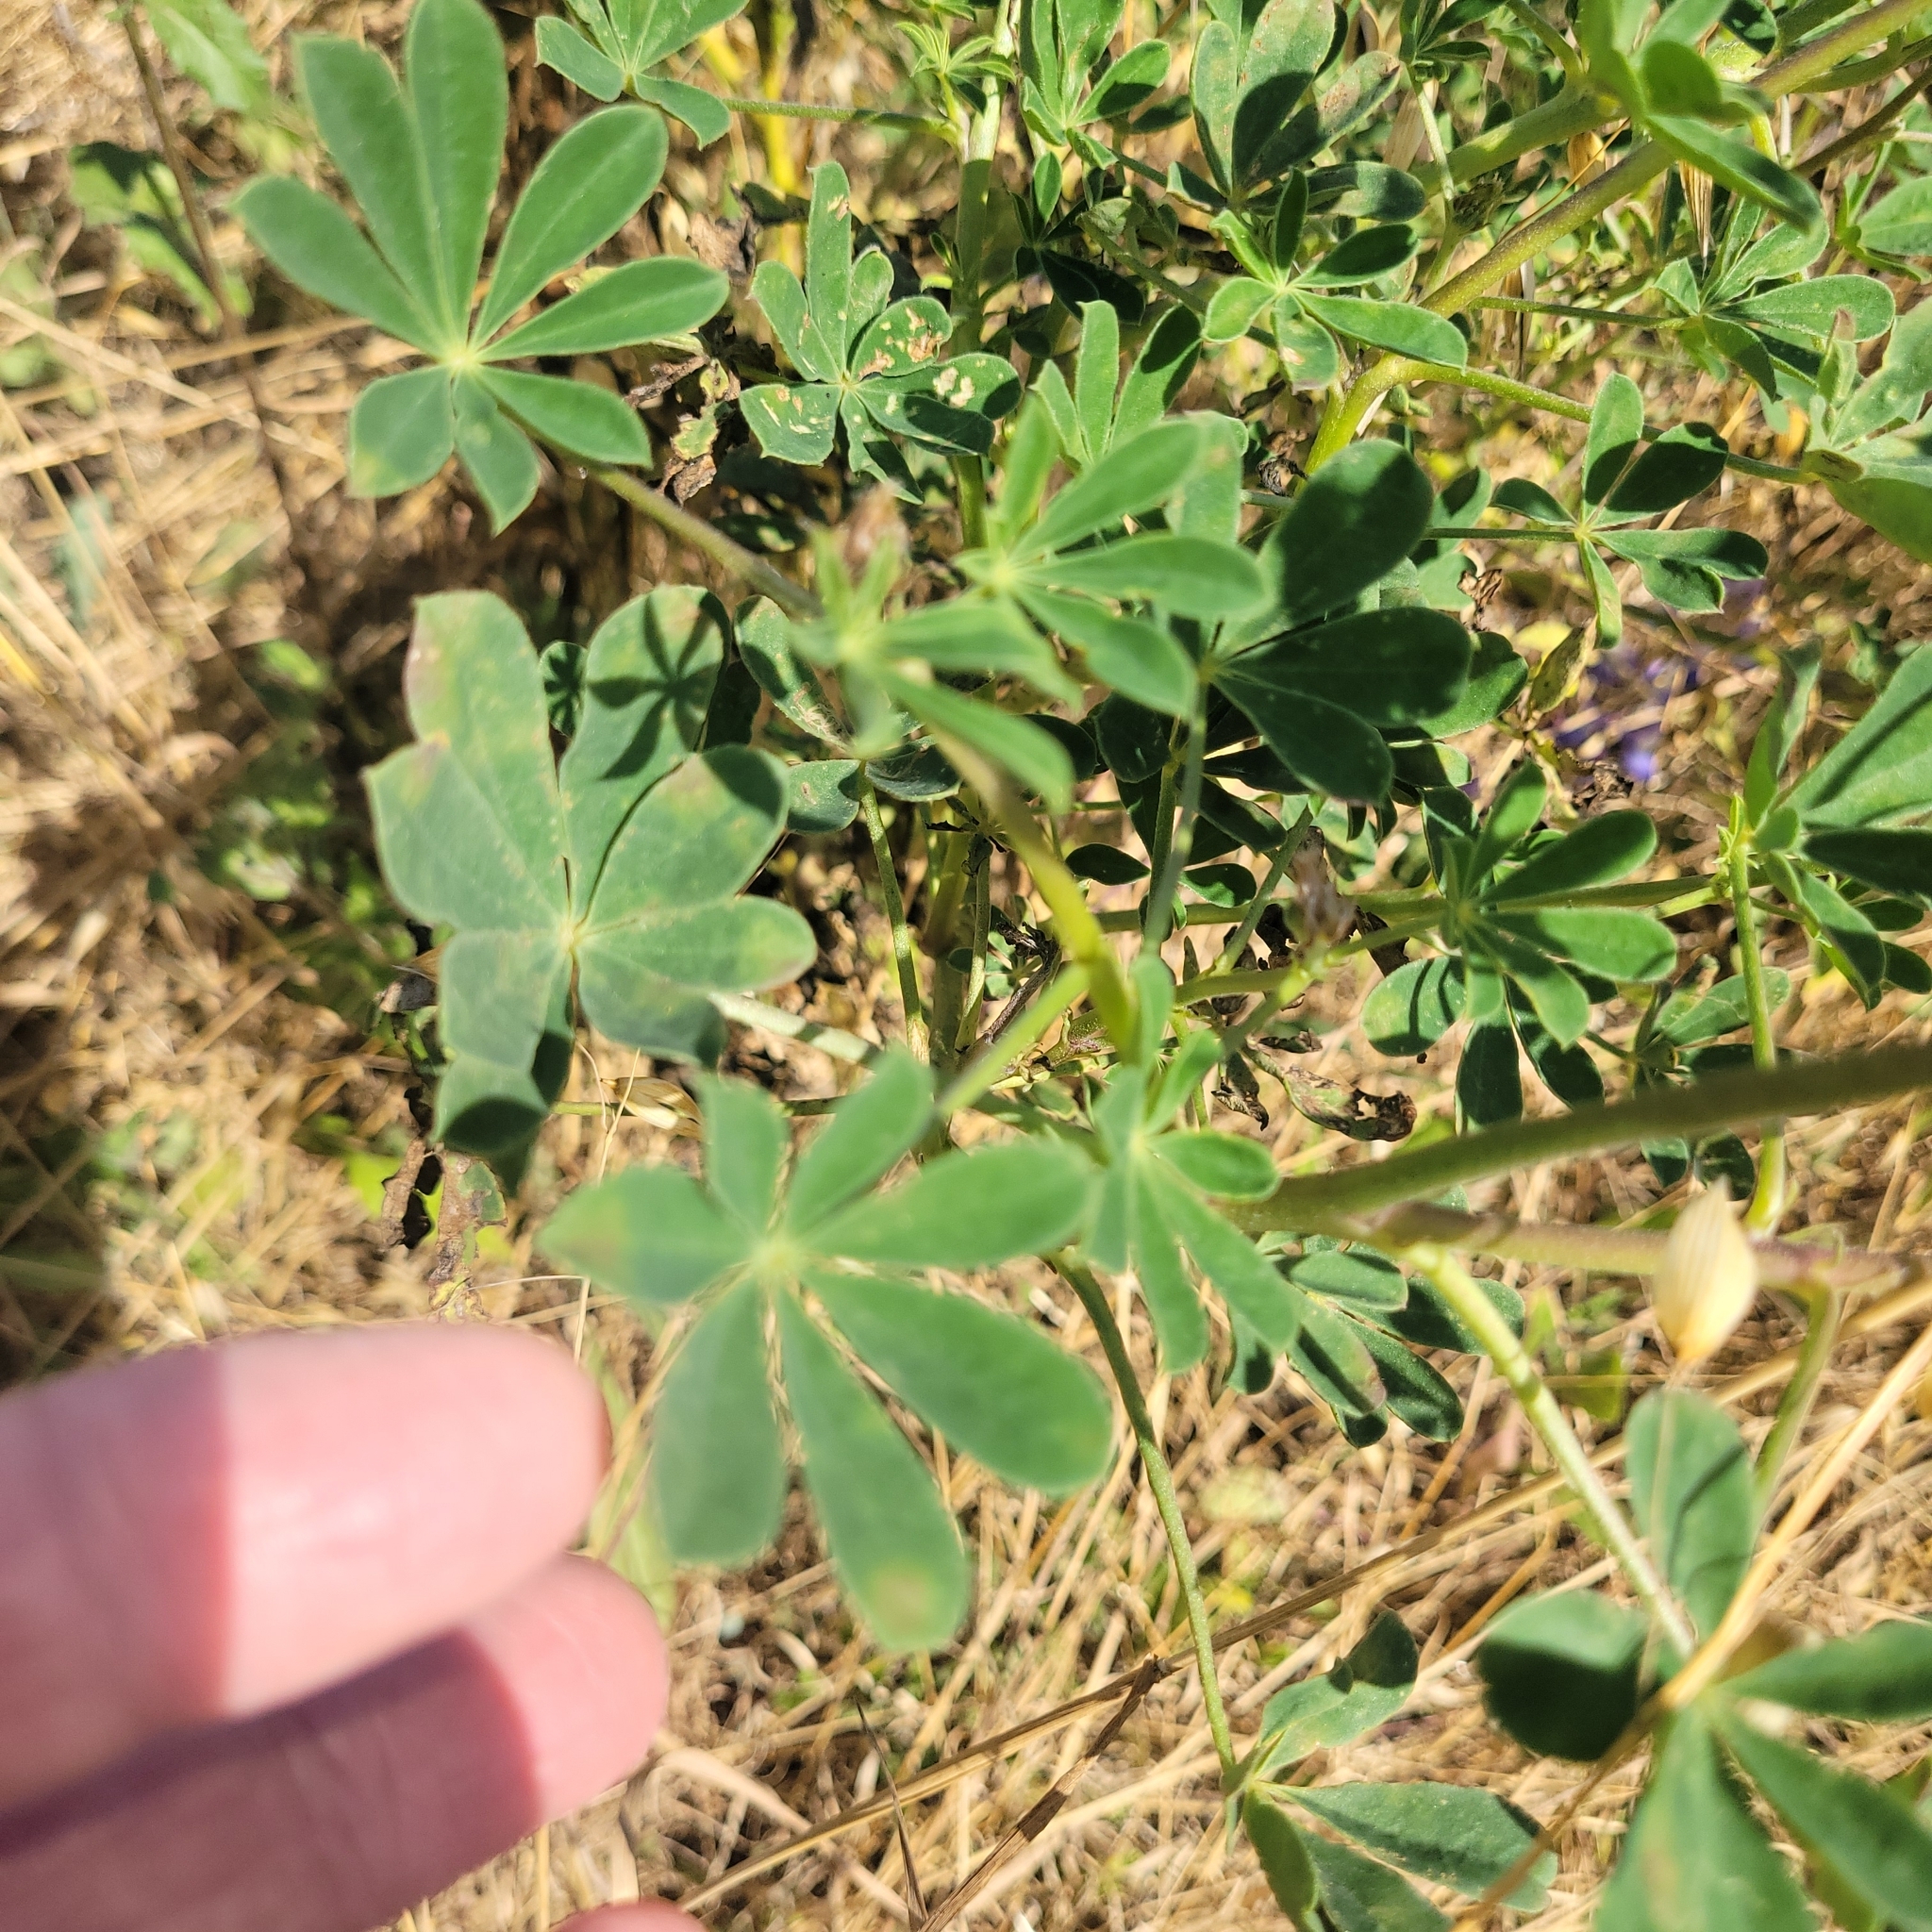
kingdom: Plantae
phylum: Tracheophyta
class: Magnoliopsida
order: Fabales
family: Fabaceae
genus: Lupinus
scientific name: Lupinus succulentus
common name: Arroyo lupine
